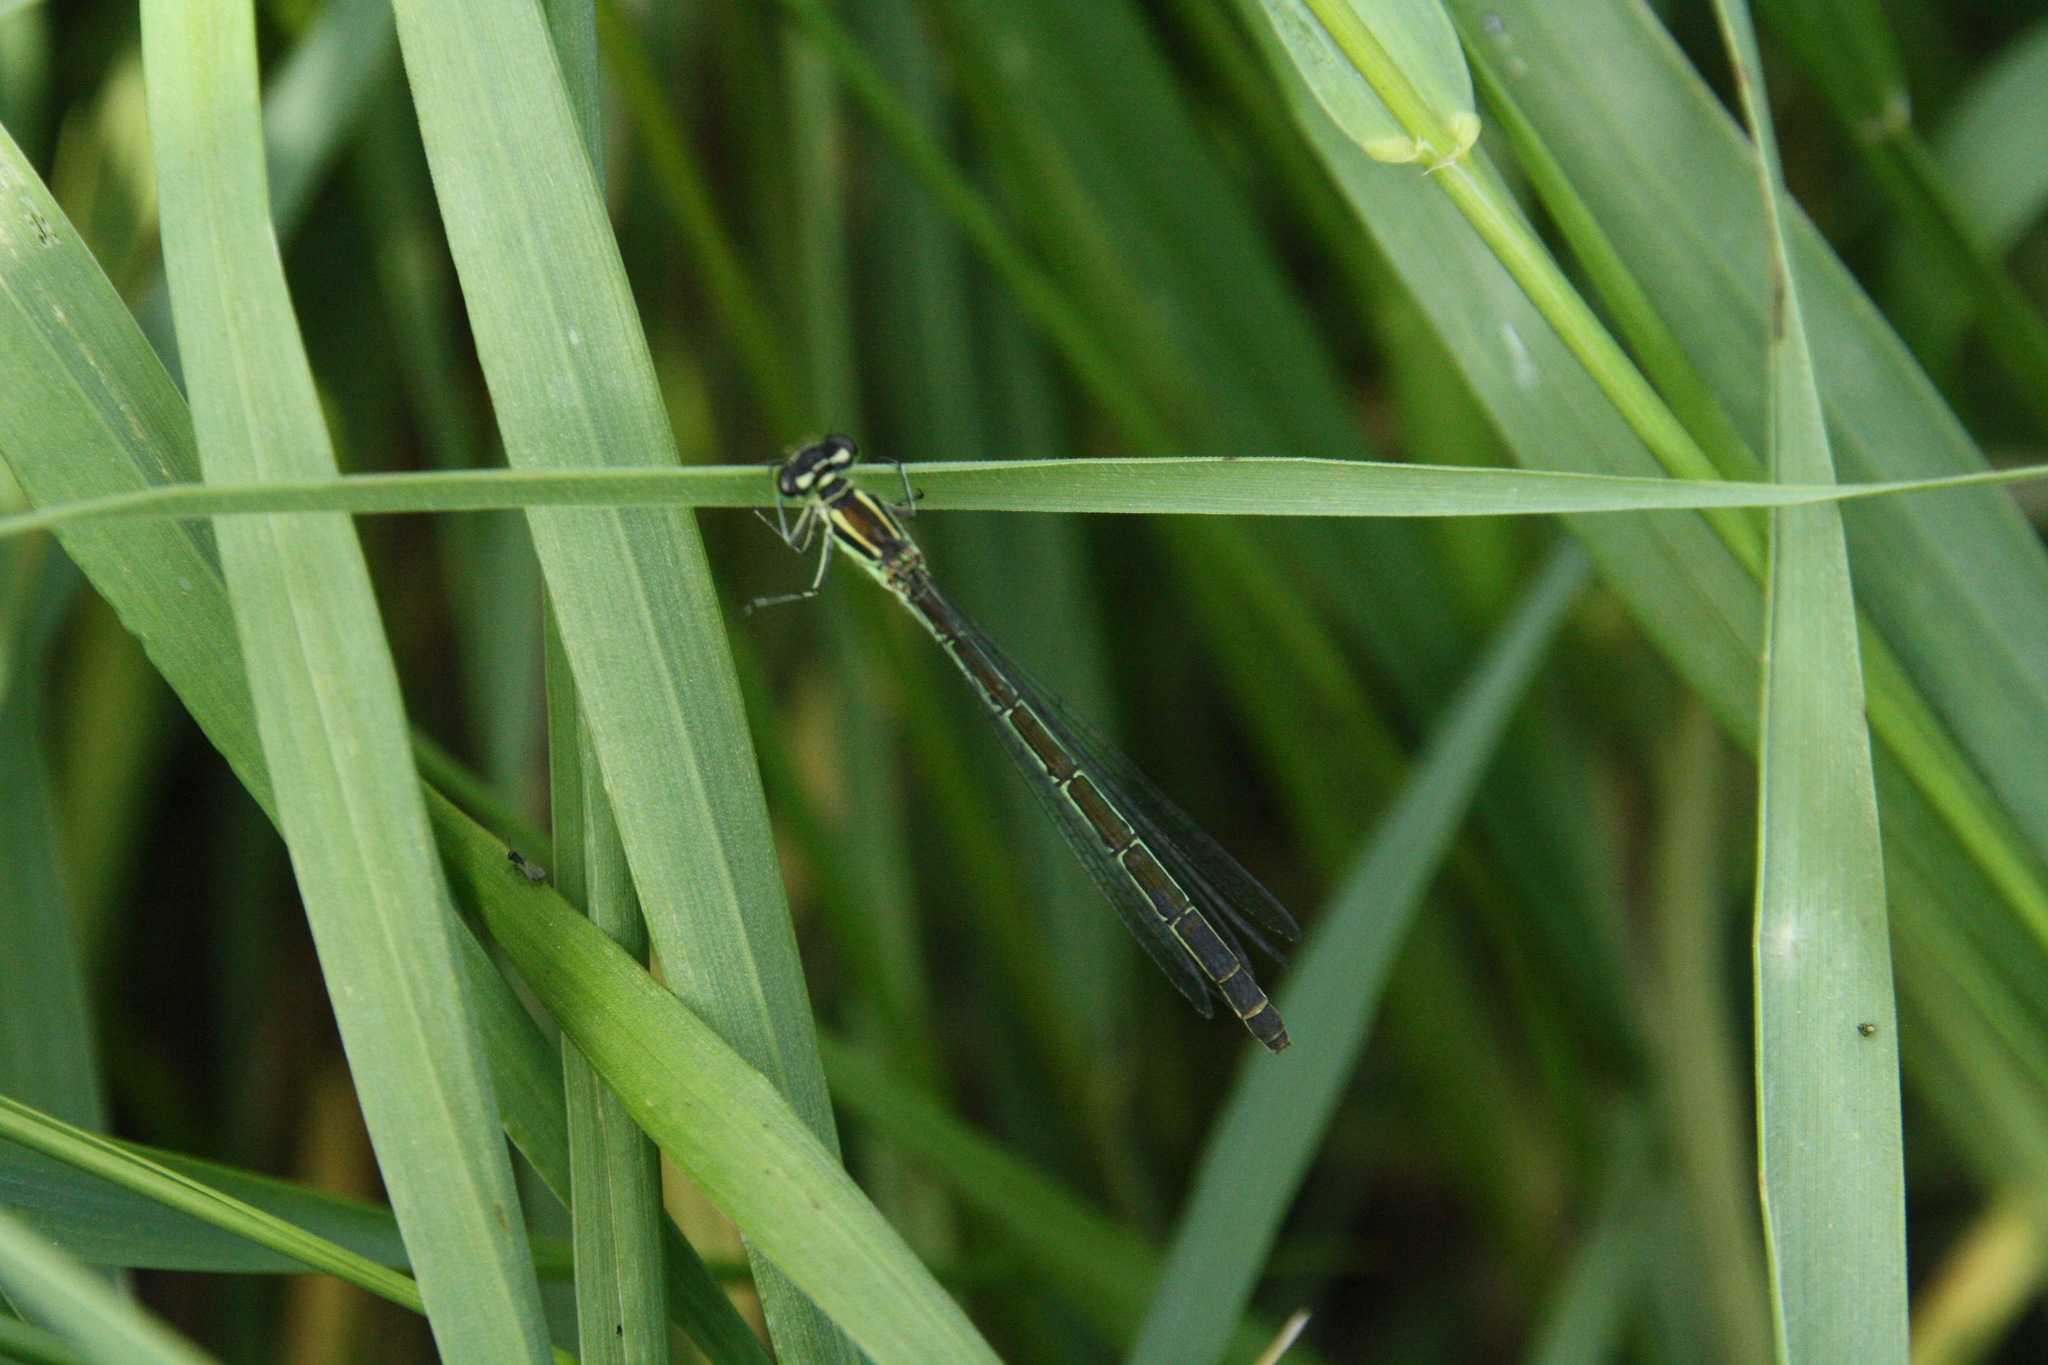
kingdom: Animalia
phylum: Arthropoda
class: Insecta
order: Odonata
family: Coenagrionidae
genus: Coenagrion
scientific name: Coenagrion hastulatum
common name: Spearhead bluet
